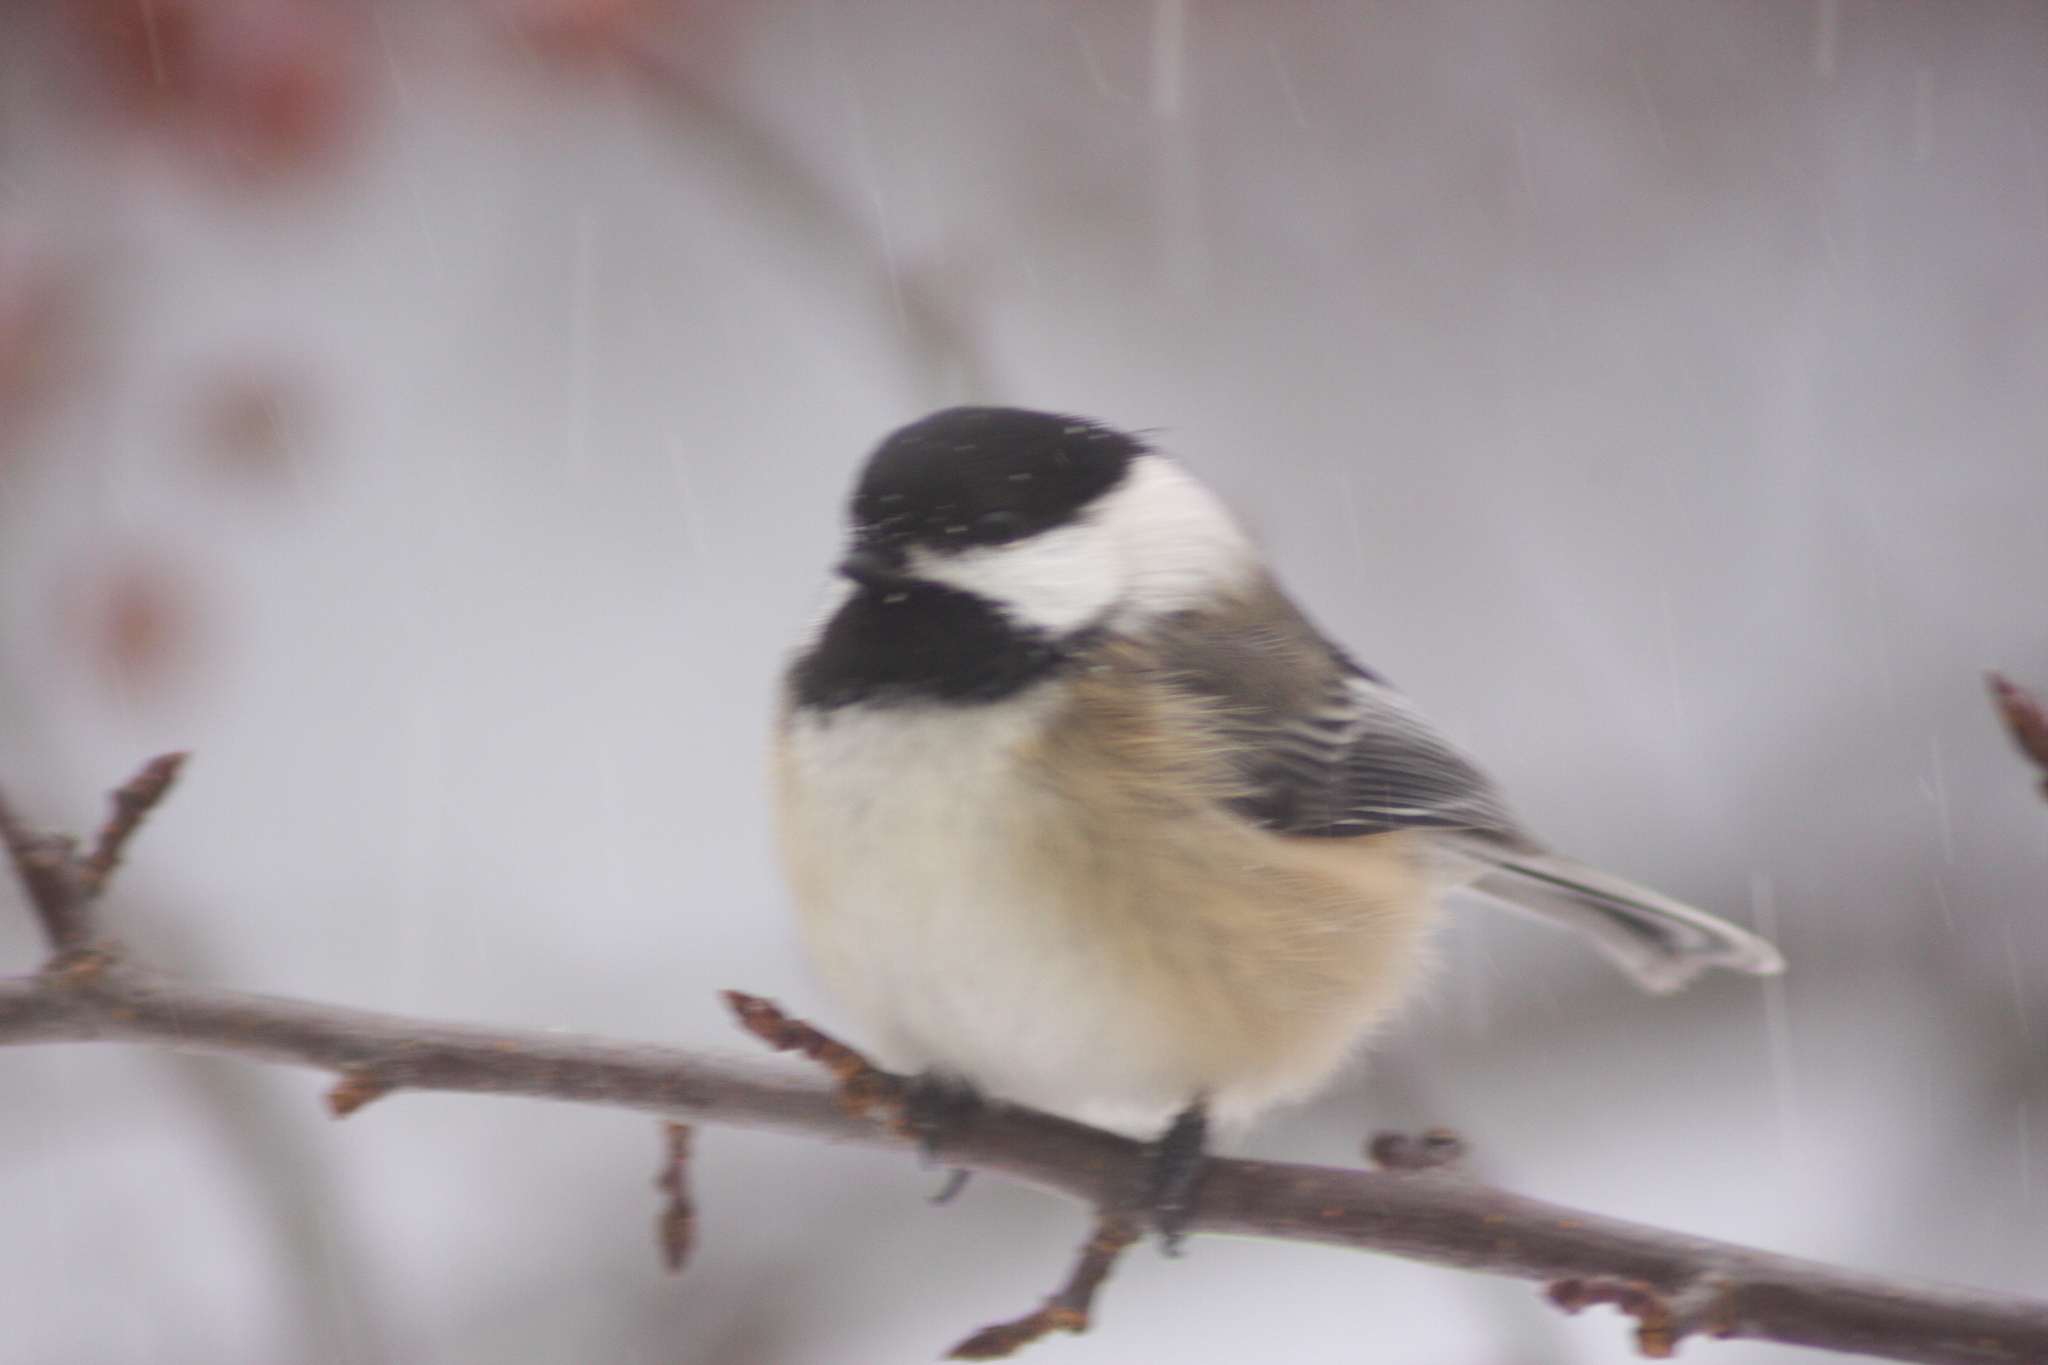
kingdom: Animalia
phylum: Chordata
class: Aves
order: Passeriformes
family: Paridae
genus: Poecile
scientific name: Poecile atricapillus
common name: Black-capped chickadee
